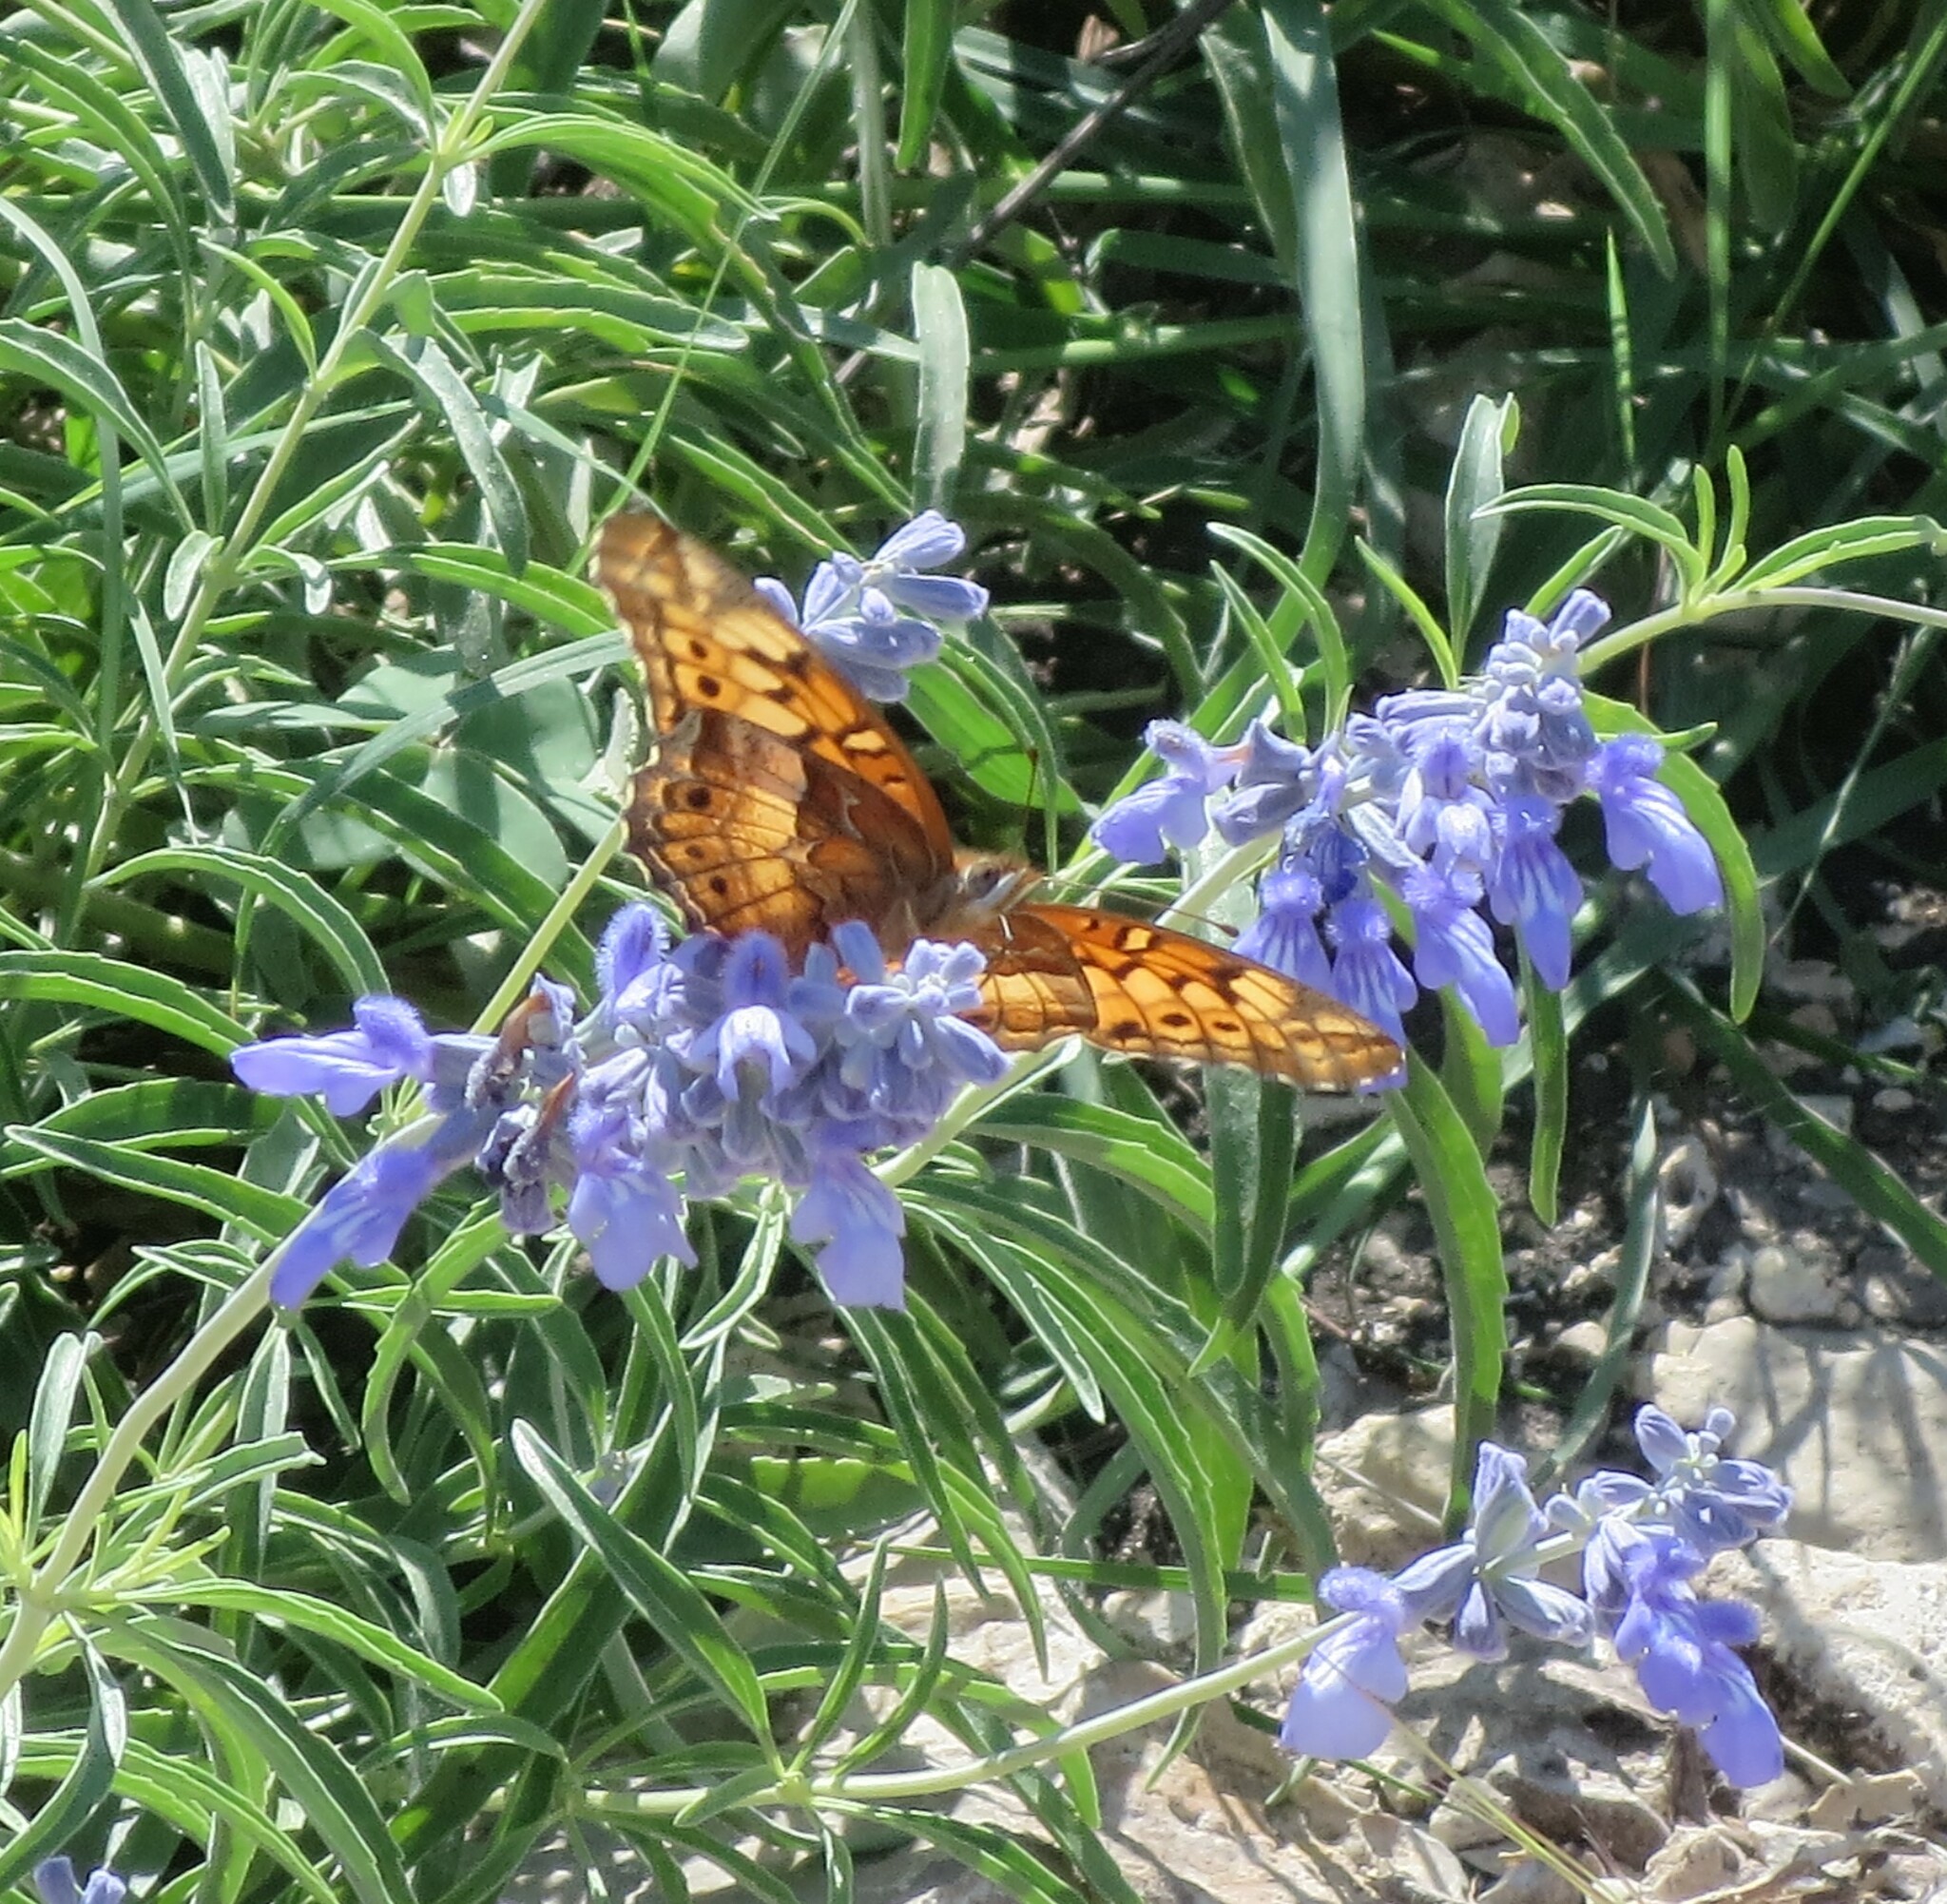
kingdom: Animalia
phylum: Arthropoda
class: Insecta
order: Lepidoptera
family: Nymphalidae
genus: Euptoieta
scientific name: Euptoieta claudia
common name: Variegated fritillary
